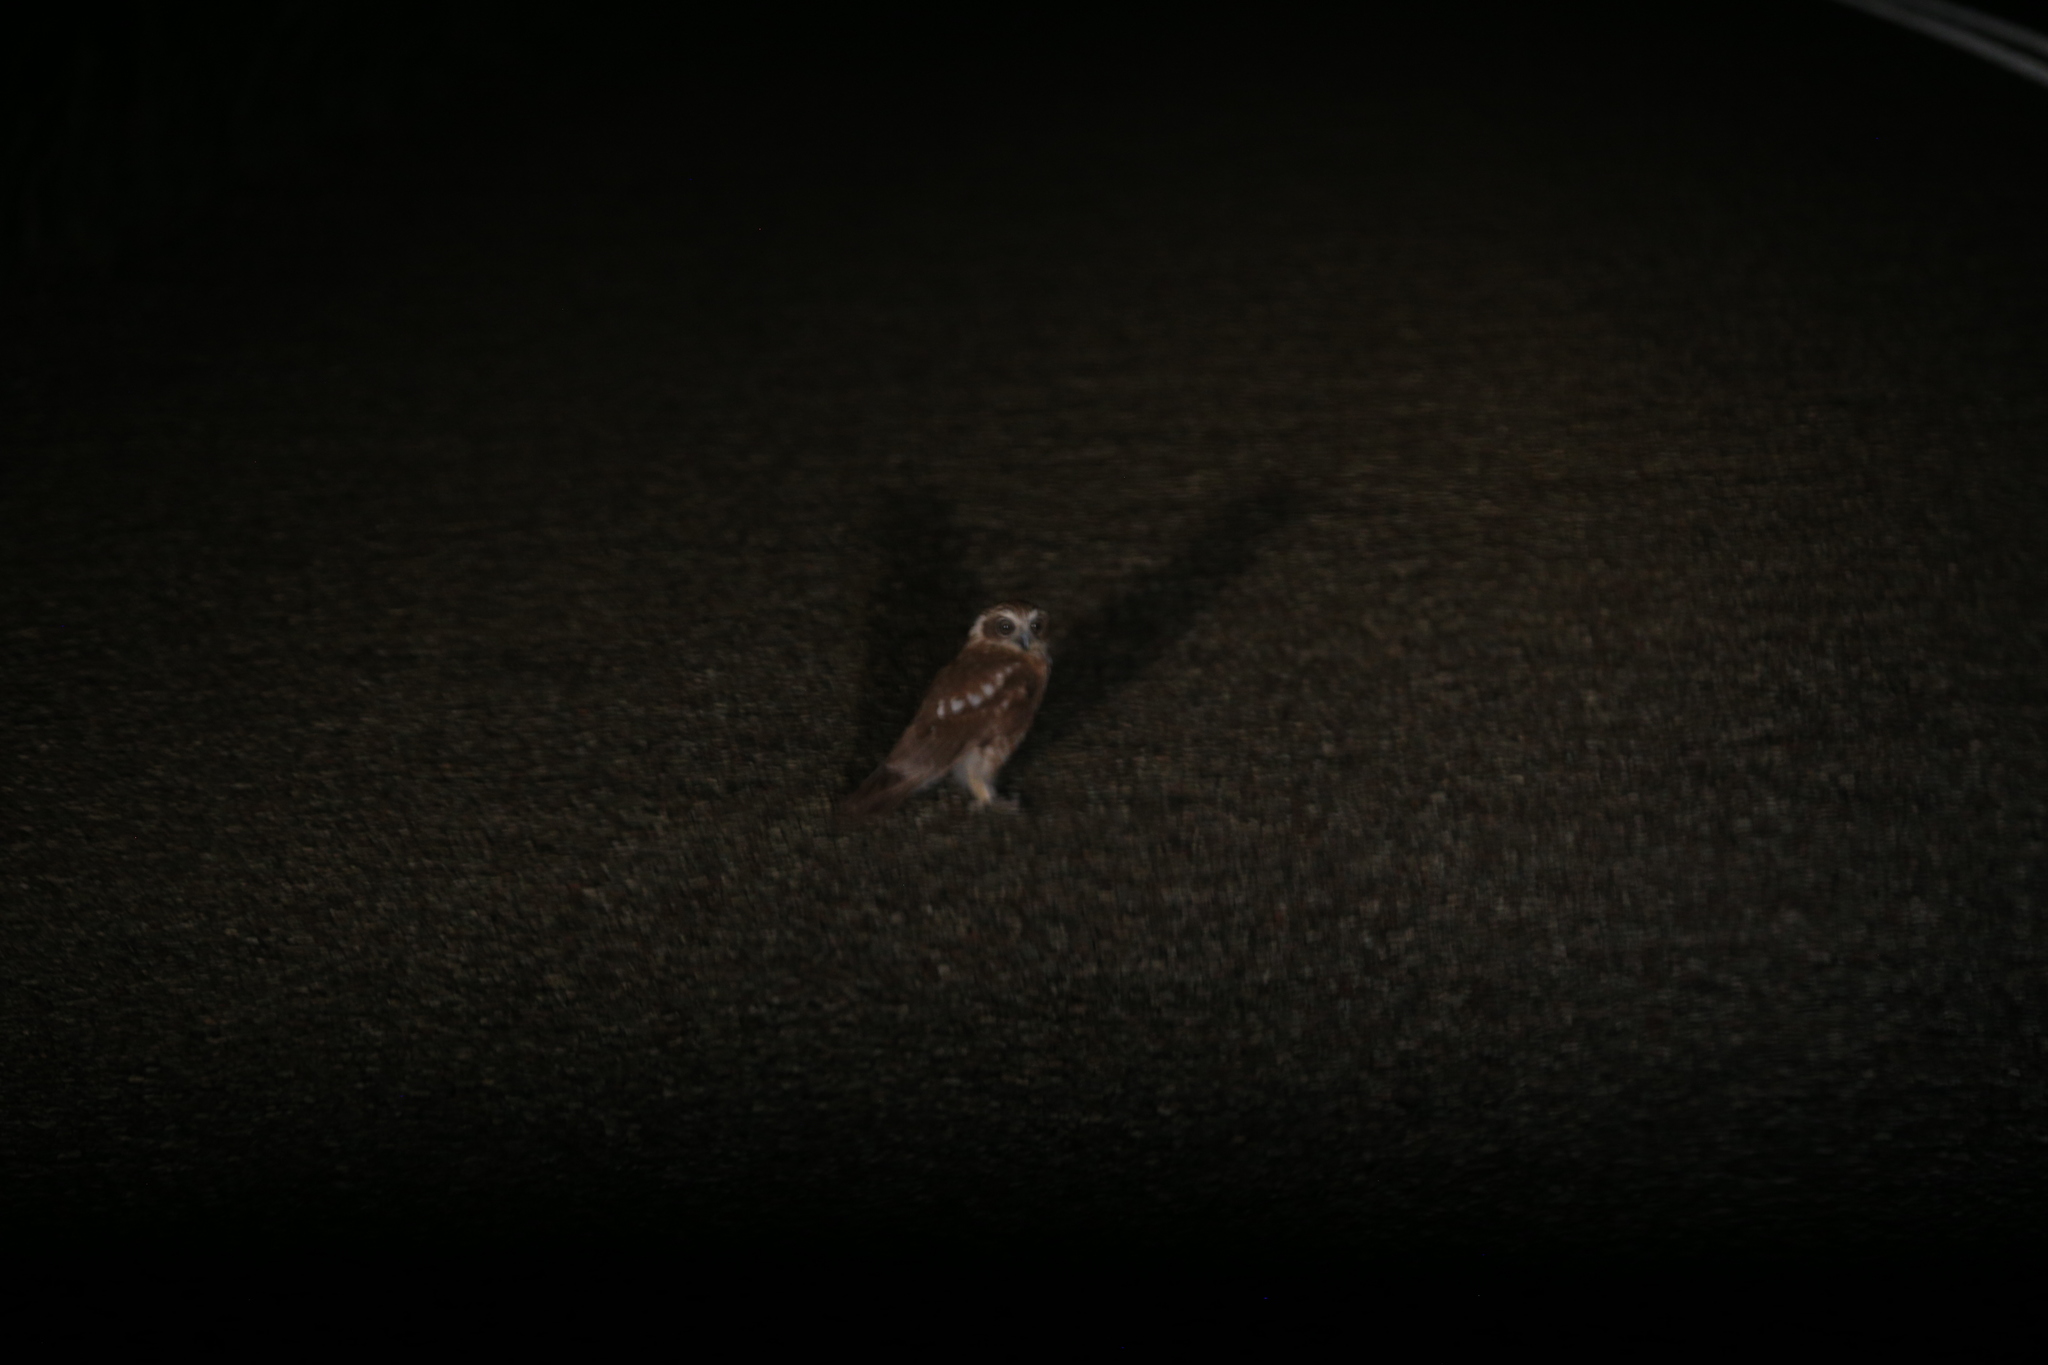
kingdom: Animalia
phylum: Chordata
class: Aves
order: Strigiformes
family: Strigidae
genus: Ninox
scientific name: Ninox boobook
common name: Southern boobook
